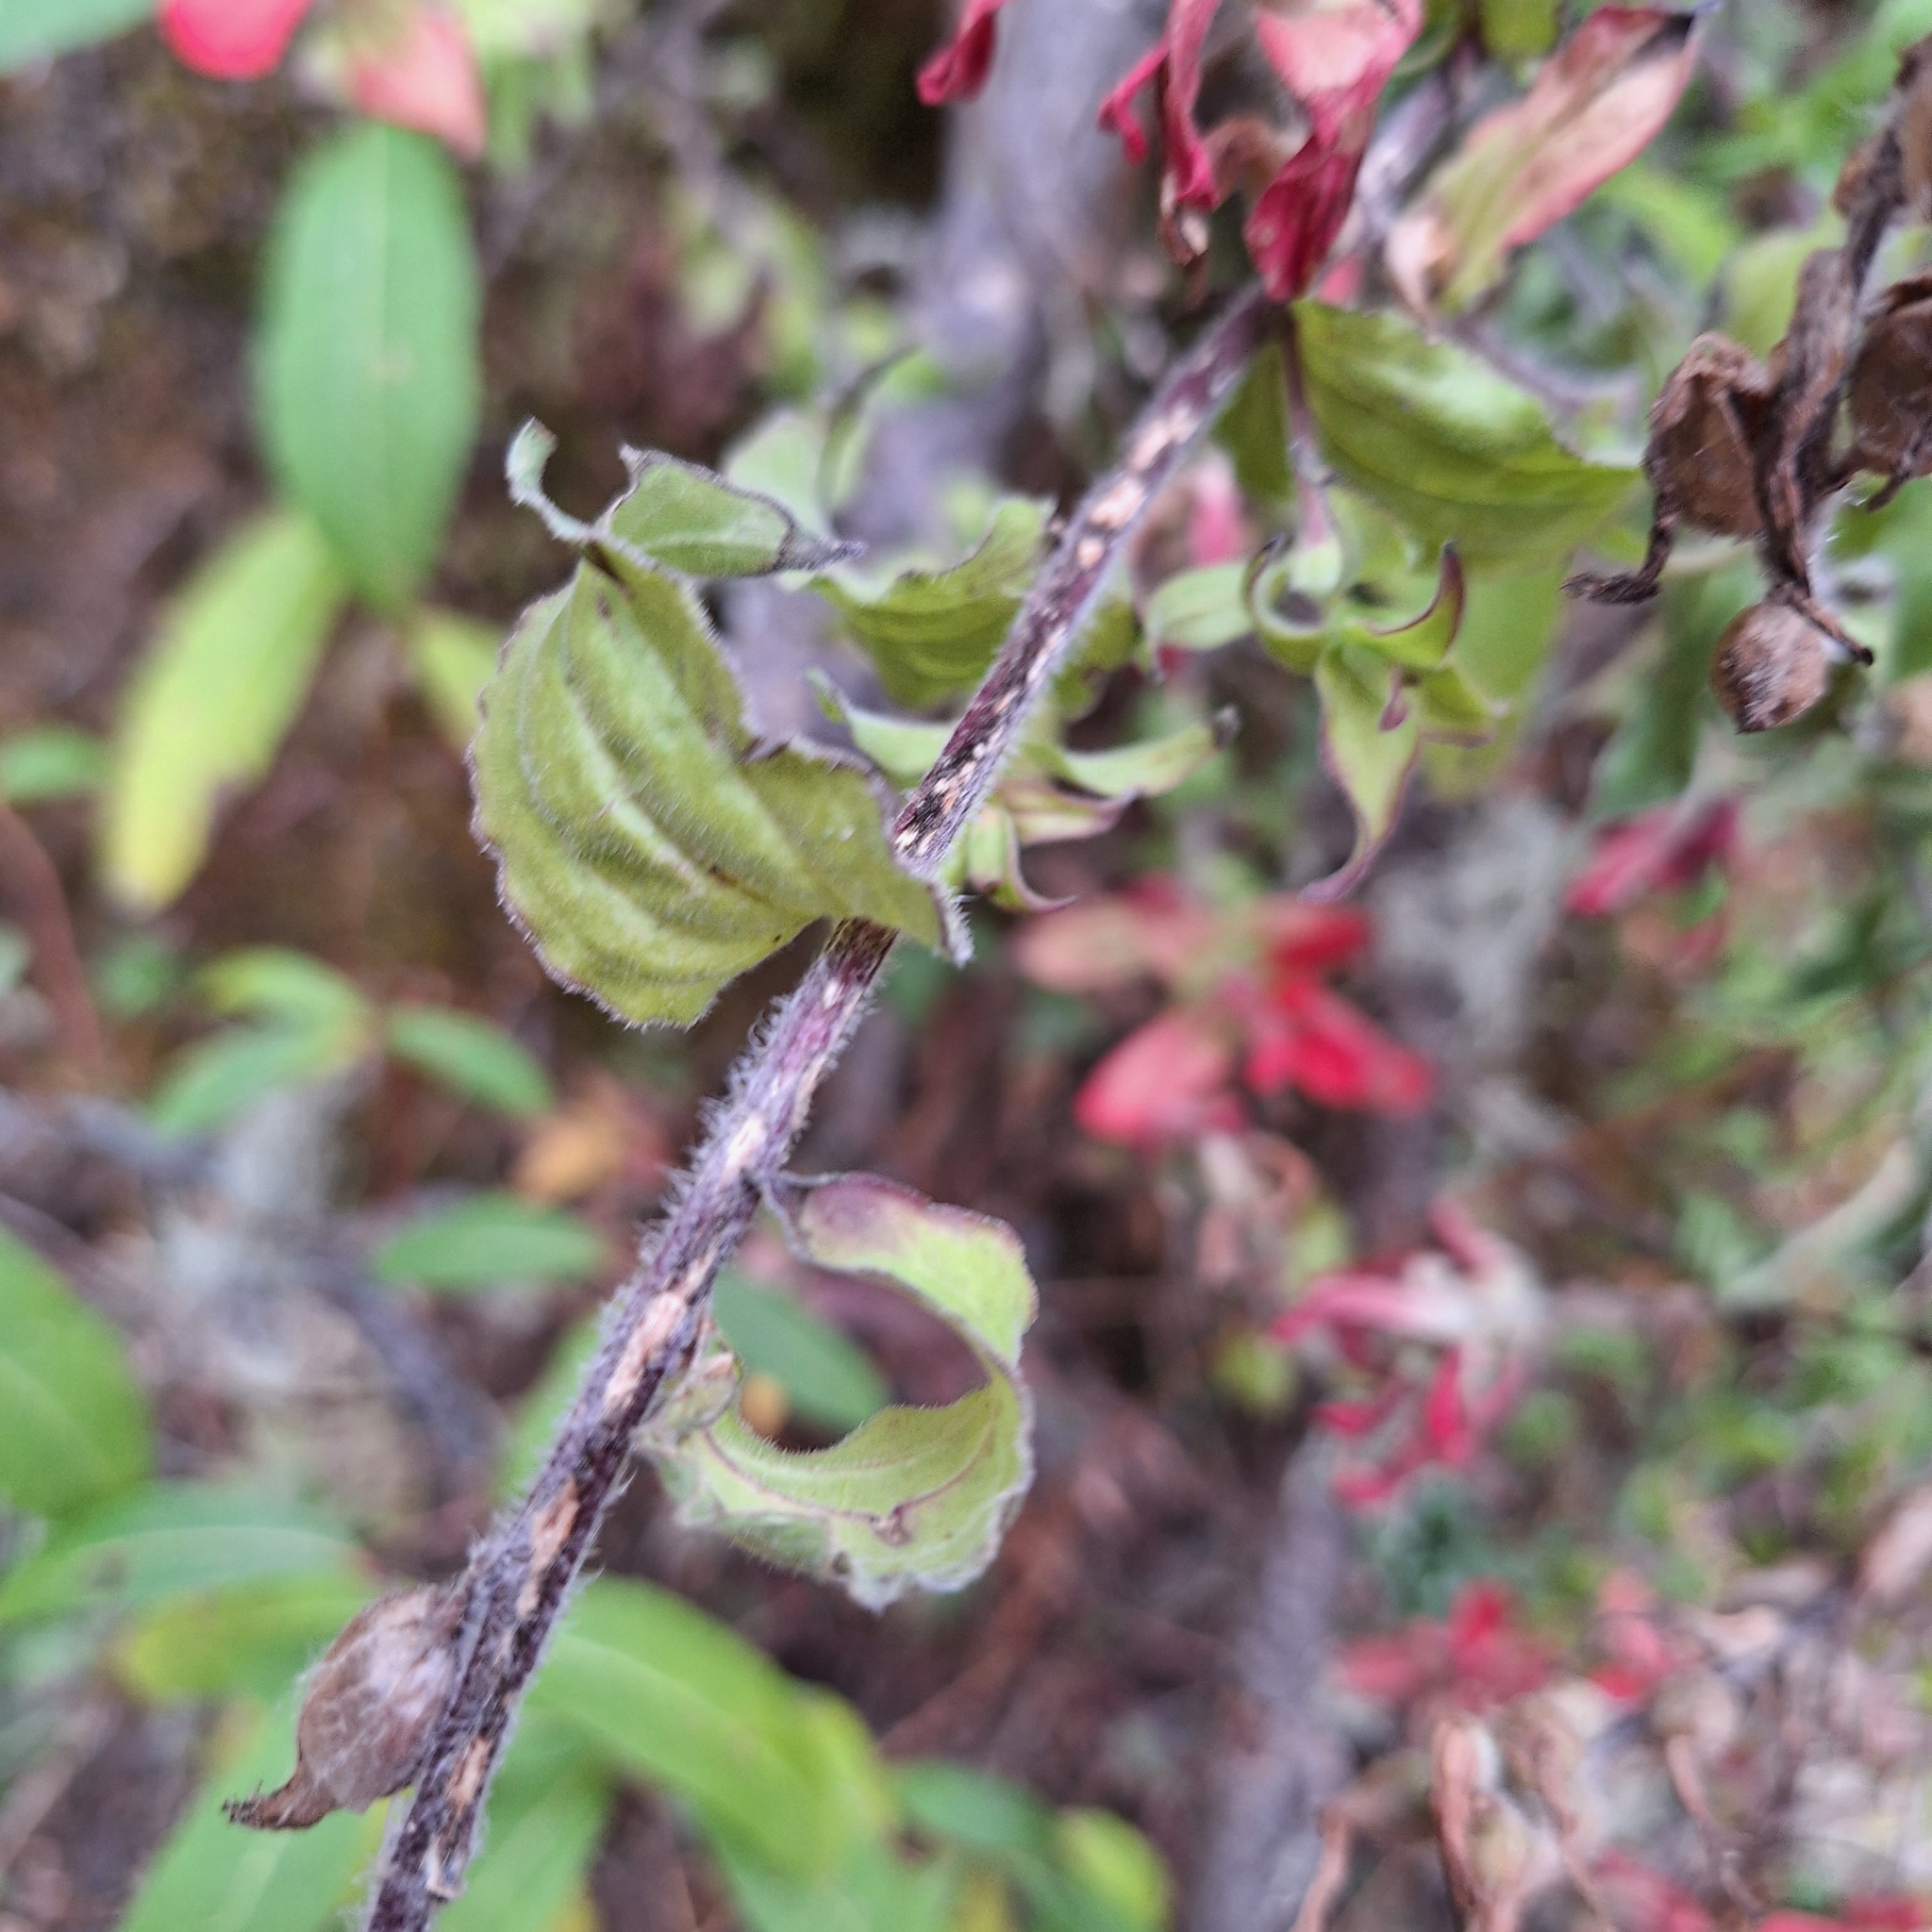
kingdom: Plantae
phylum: Tracheophyta
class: Magnoliopsida
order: Lamiales
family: Orobanchaceae
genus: Castilleja
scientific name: Castilleja cryptandra
